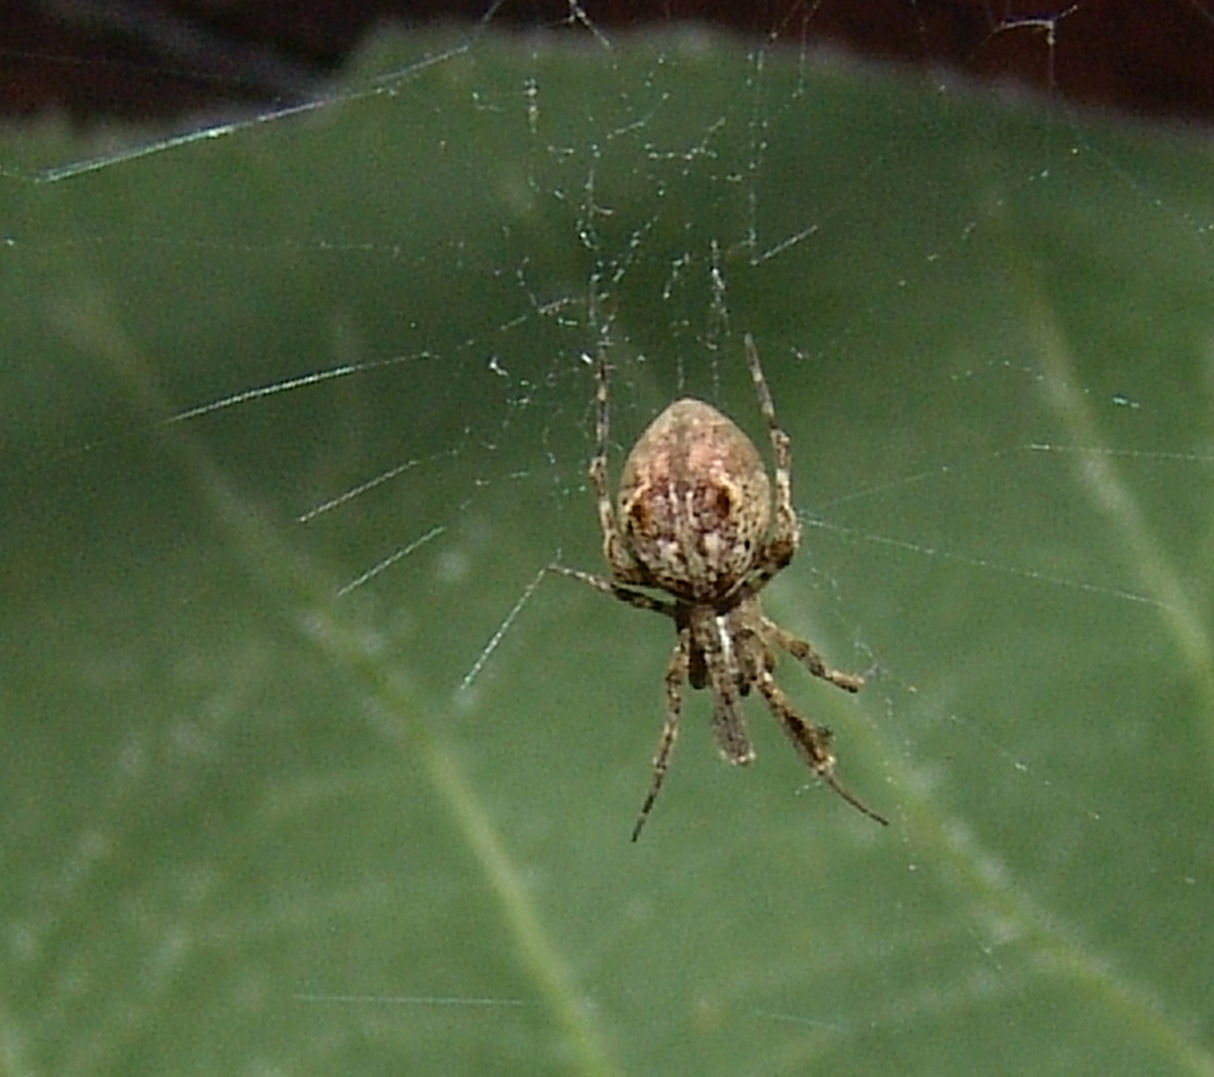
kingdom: Animalia
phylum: Arthropoda
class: Arachnida
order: Araneae
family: Uloboridae
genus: Uloborus
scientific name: Uloborus glomosus
